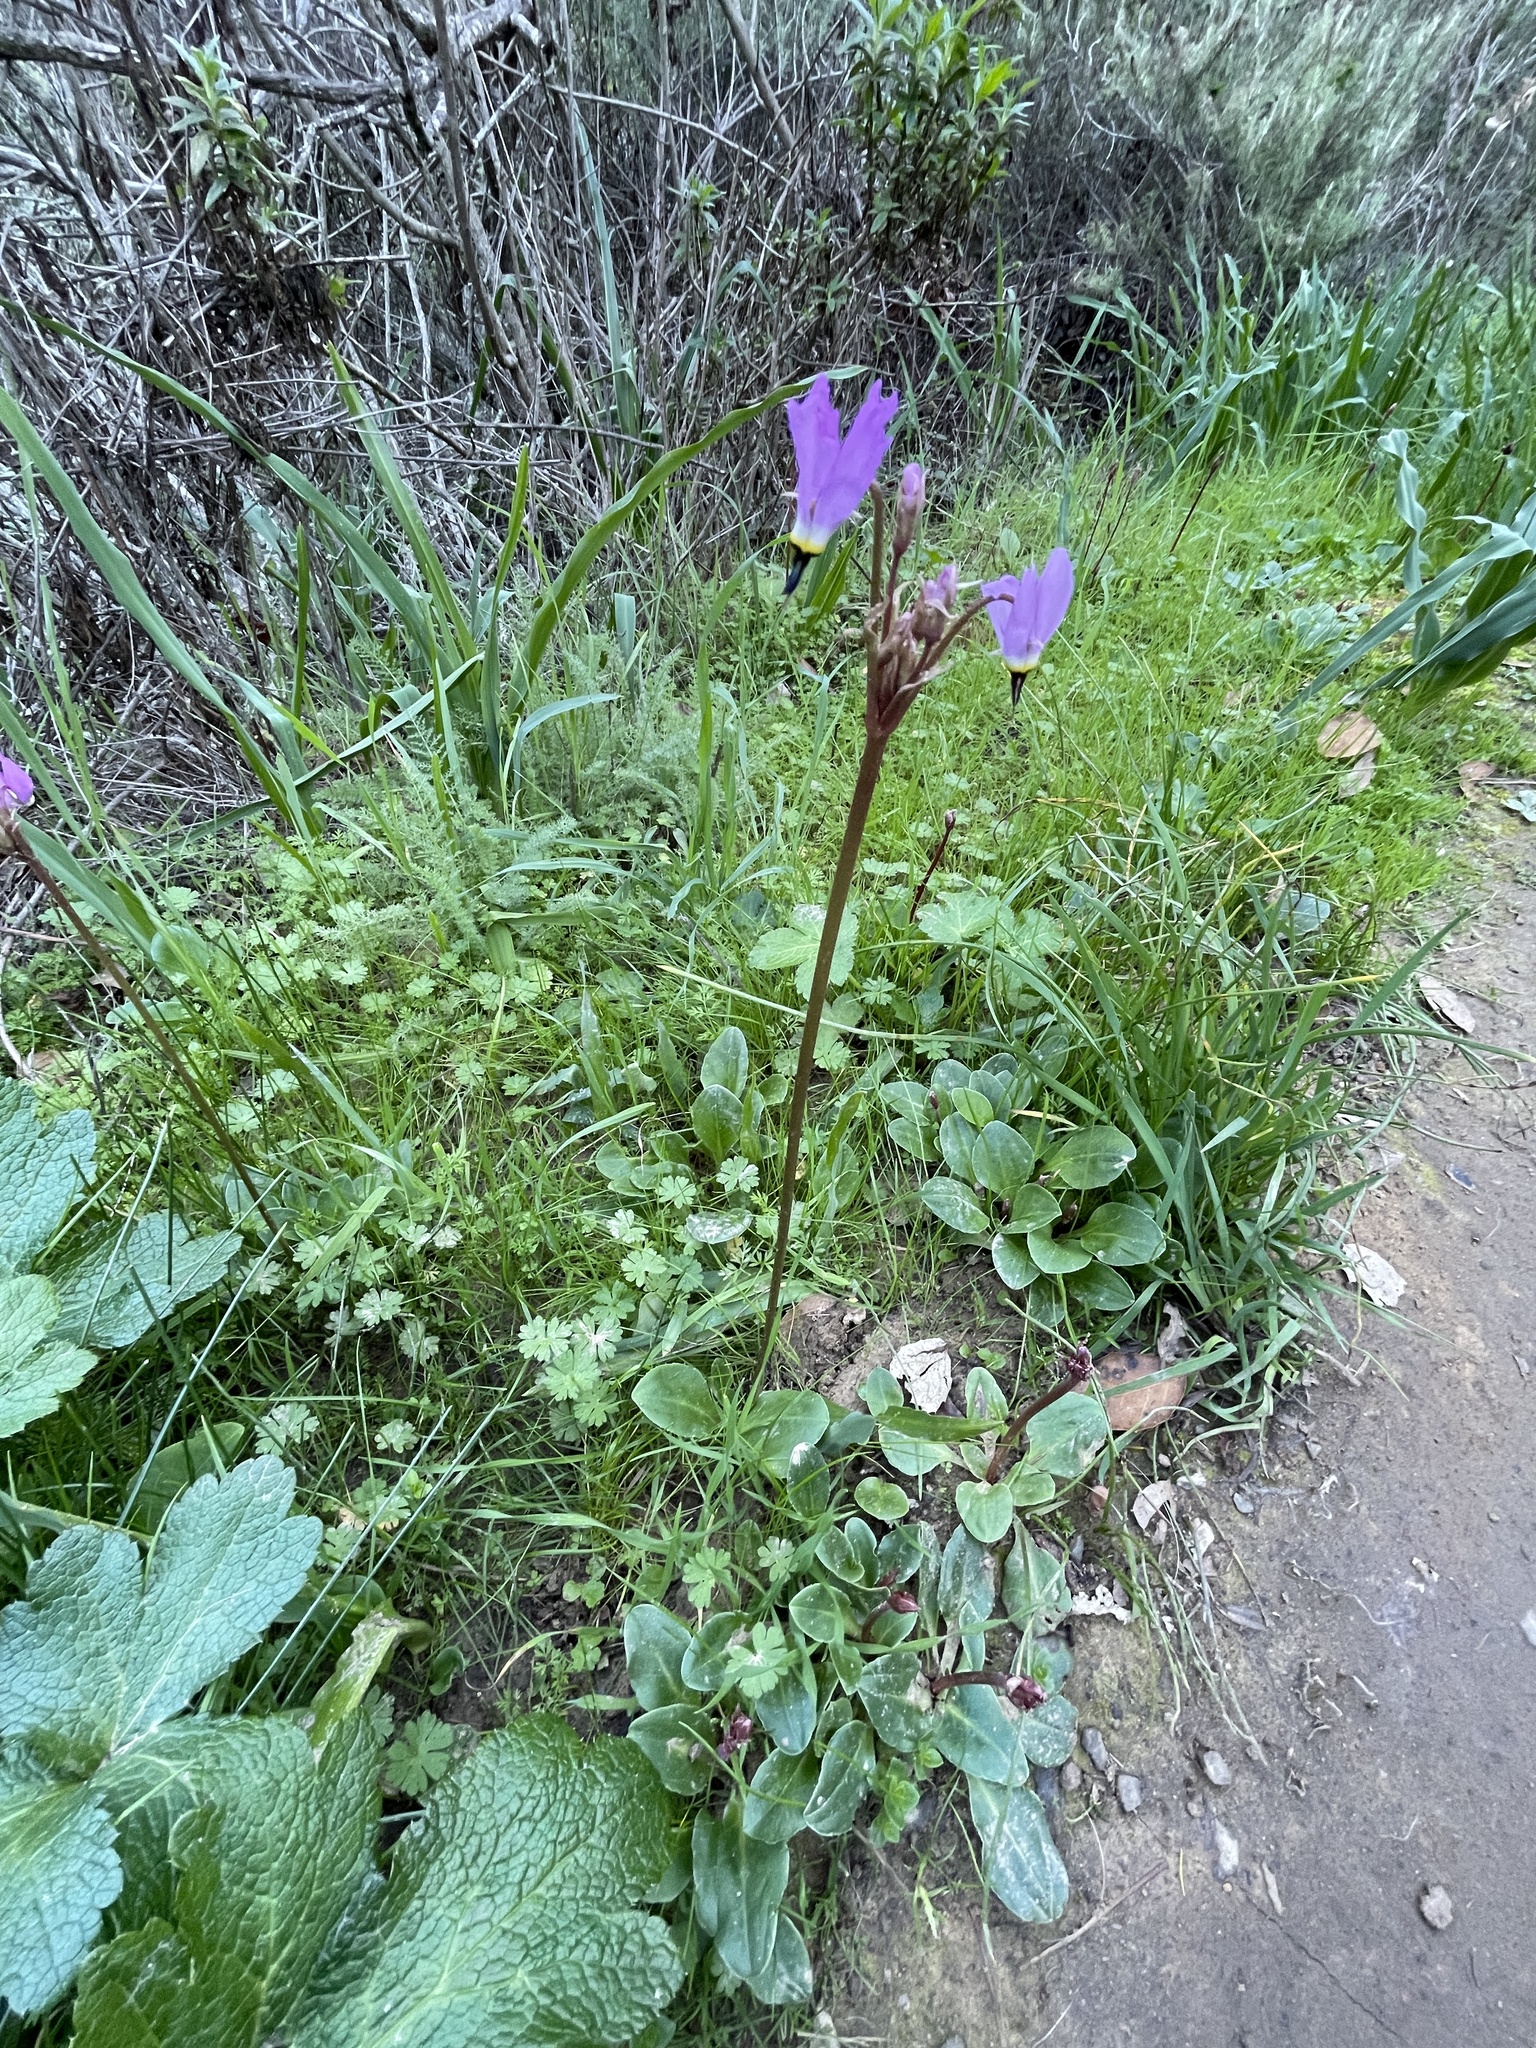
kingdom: Plantae
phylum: Tracheophyta
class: Magnoliopsida
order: Ericales
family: Primulaceae
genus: Dodecatheon
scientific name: Dodecatheon hendersonii
